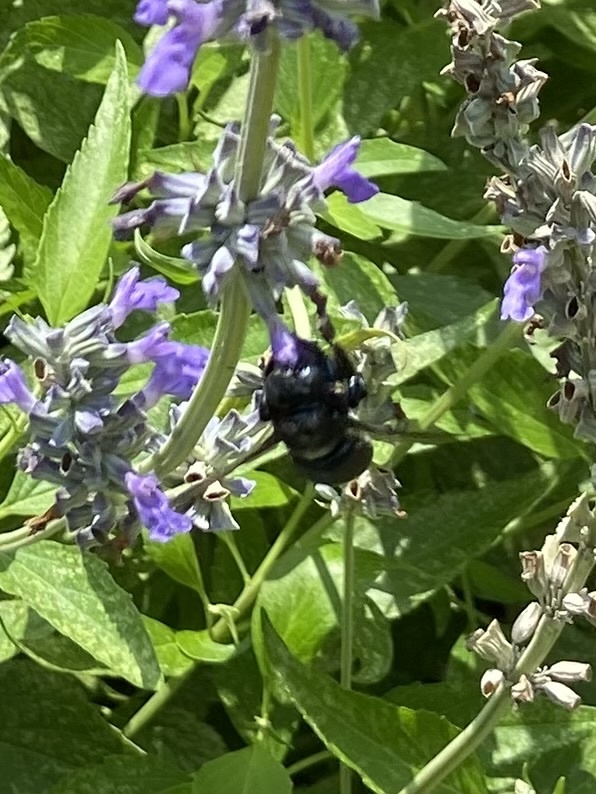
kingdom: Animalia
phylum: Arthropoda
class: Insecta
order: Hymenoptera
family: Apidae
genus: Xylocopa
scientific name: Xylocopa micans
